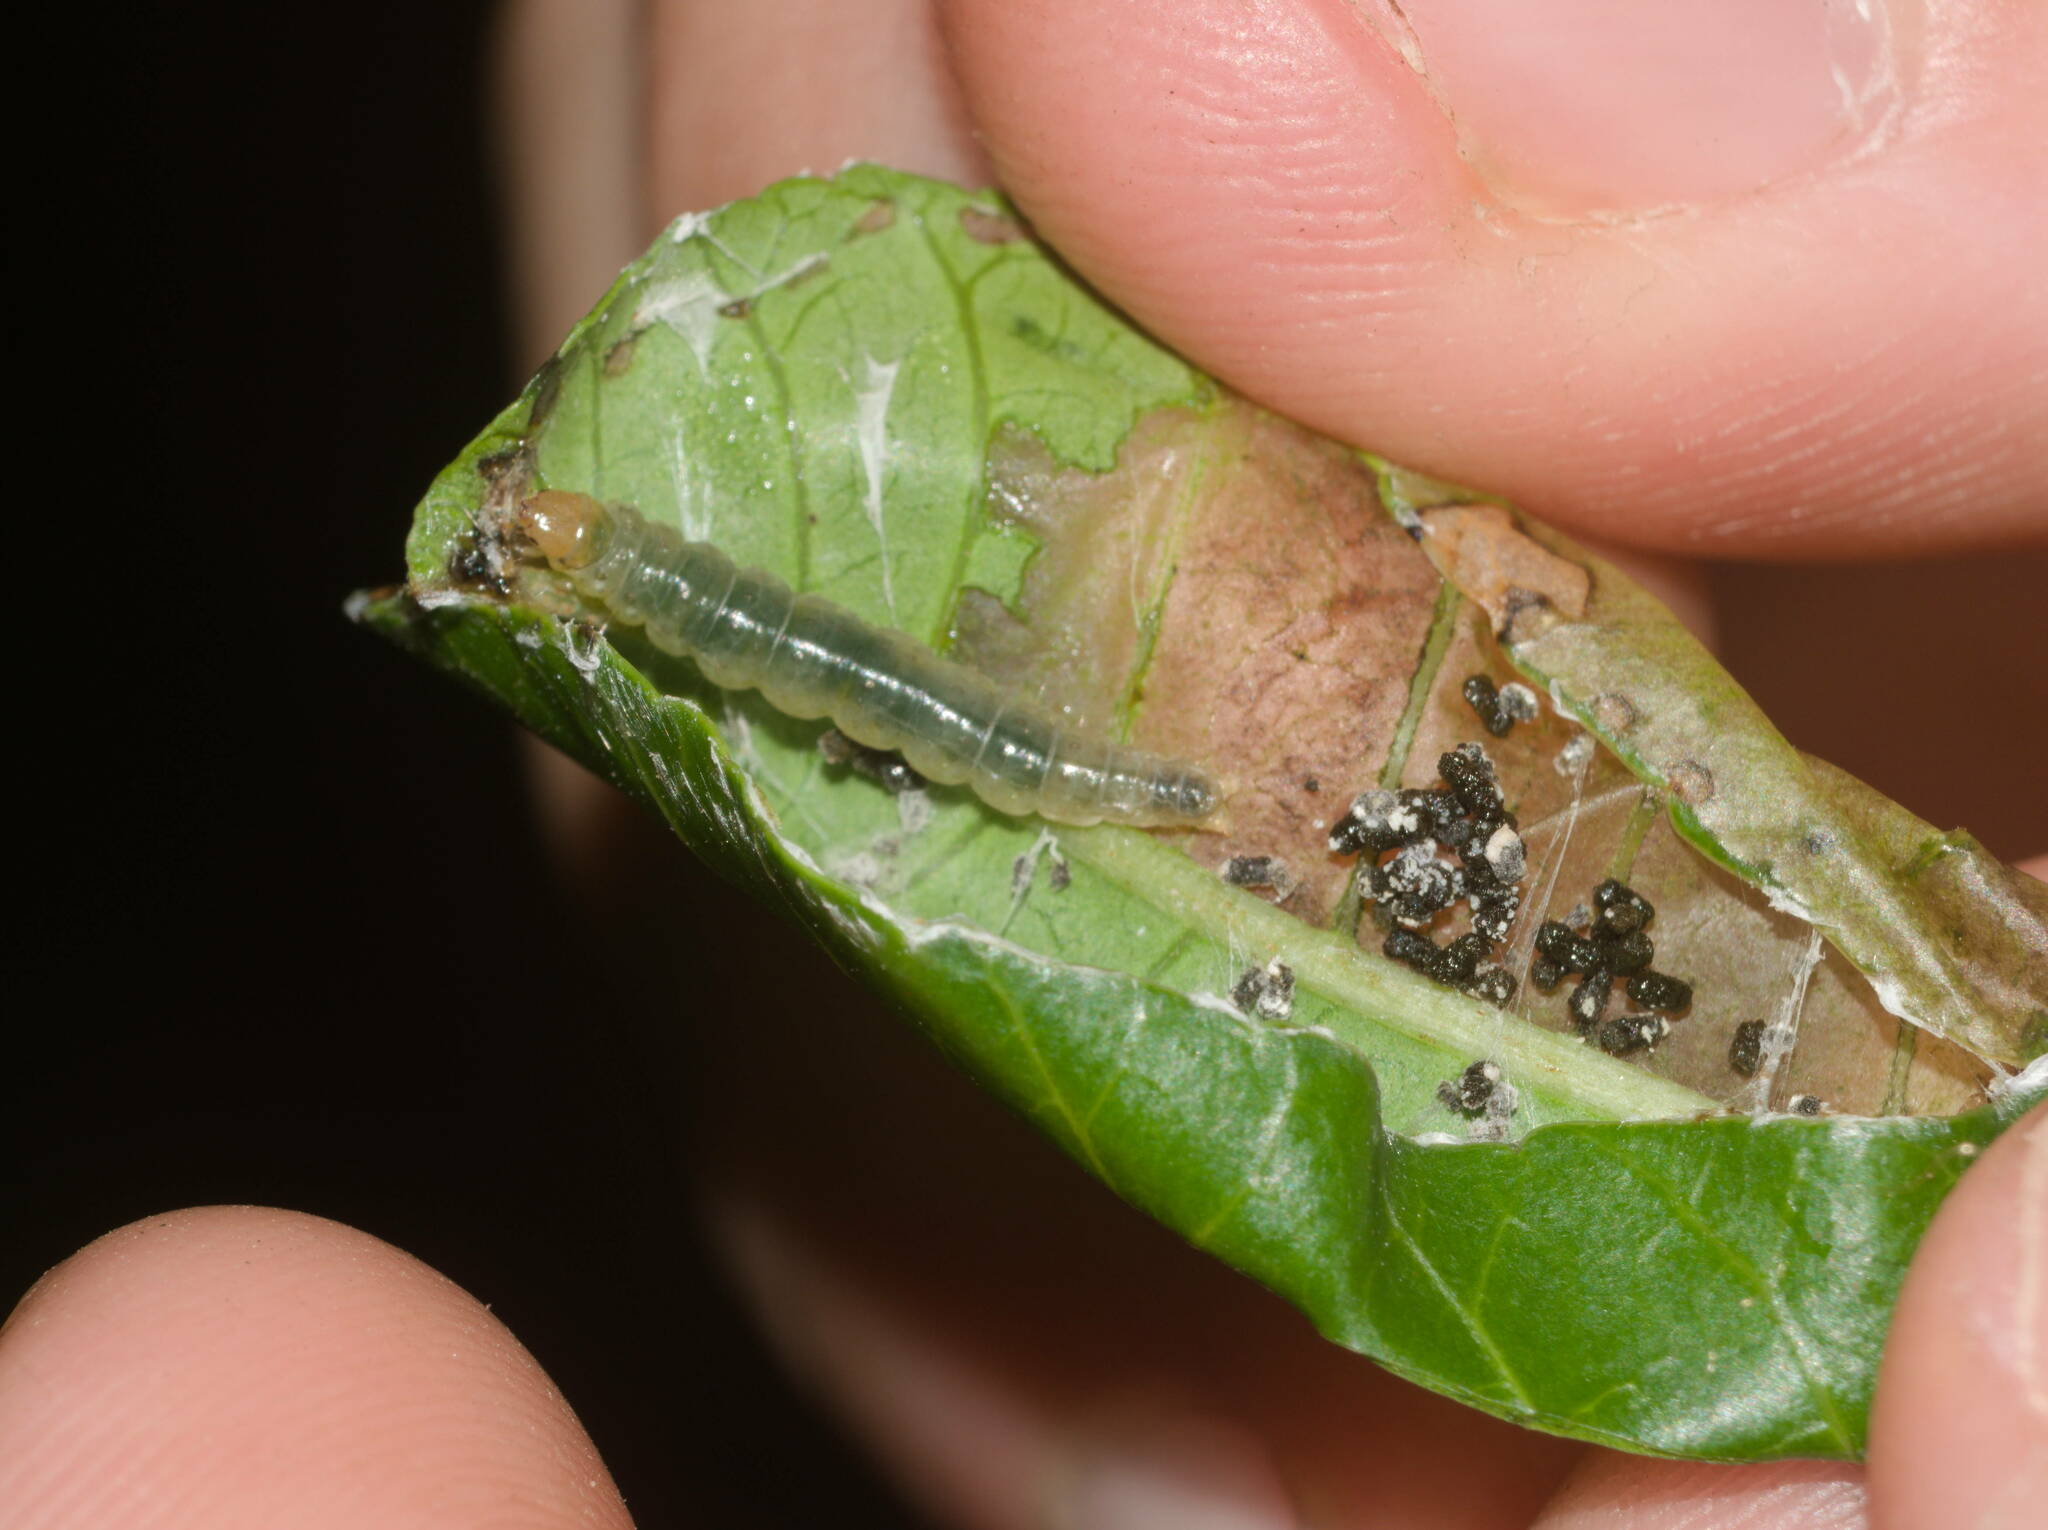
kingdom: Animalia
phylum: Arthropoda
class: Insecta
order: Lepidoptera
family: Tortricidae
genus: Episimus
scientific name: Episimus unguiculus
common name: Brazilian peppertree leaflet rolling moth
